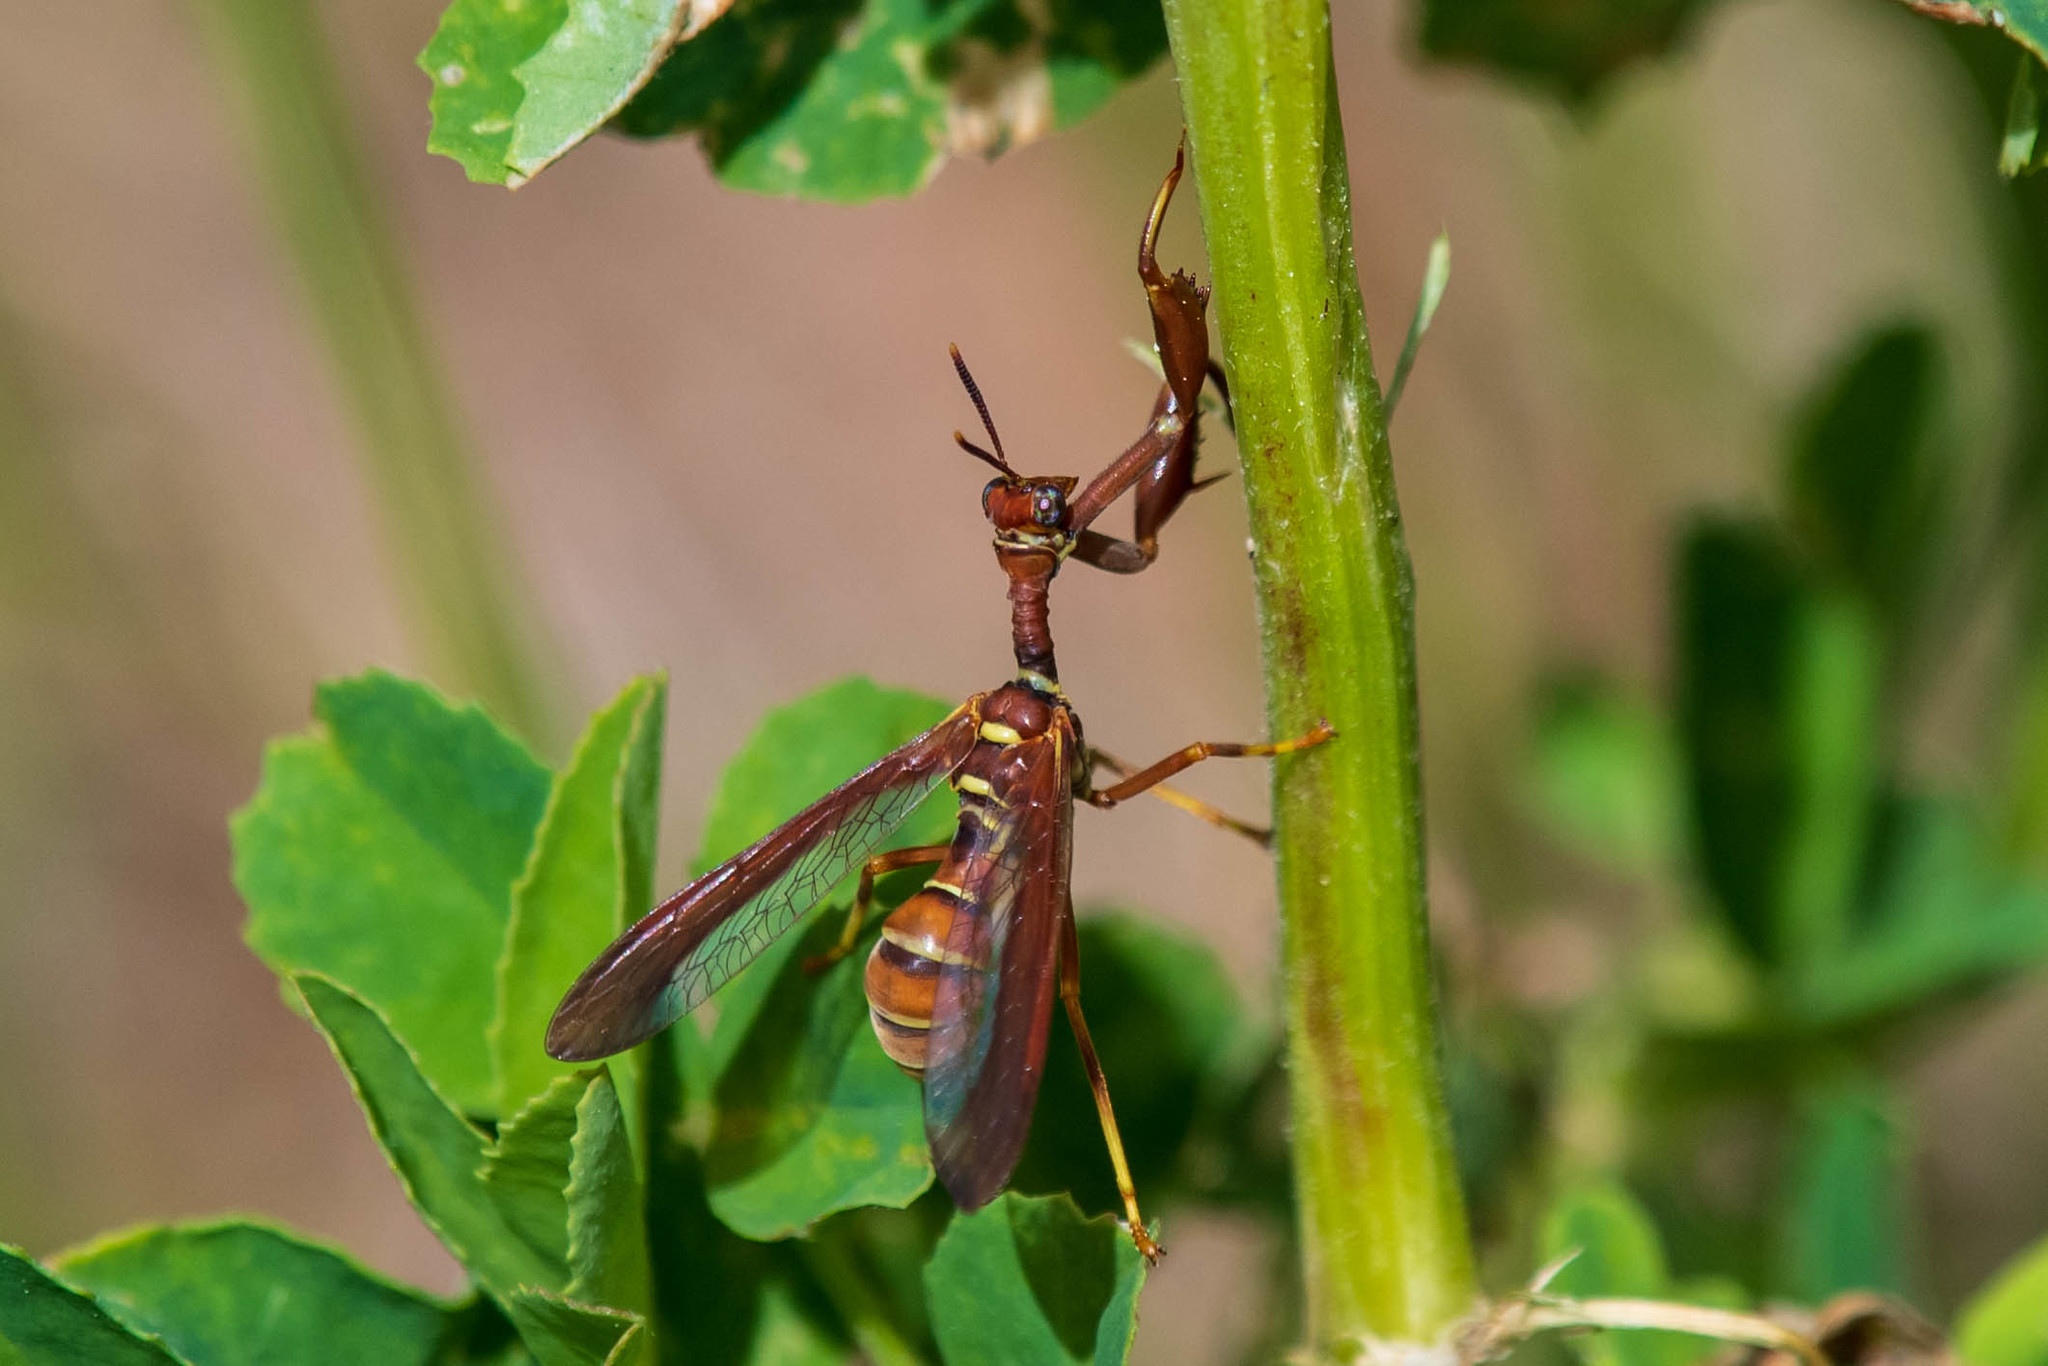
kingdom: Animalia
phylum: Arthropoda
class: Insecta
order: Neuroptera
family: Mantispidae
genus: Climaciella
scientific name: Climaciella brunnea
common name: Brown wasp mantidfly
